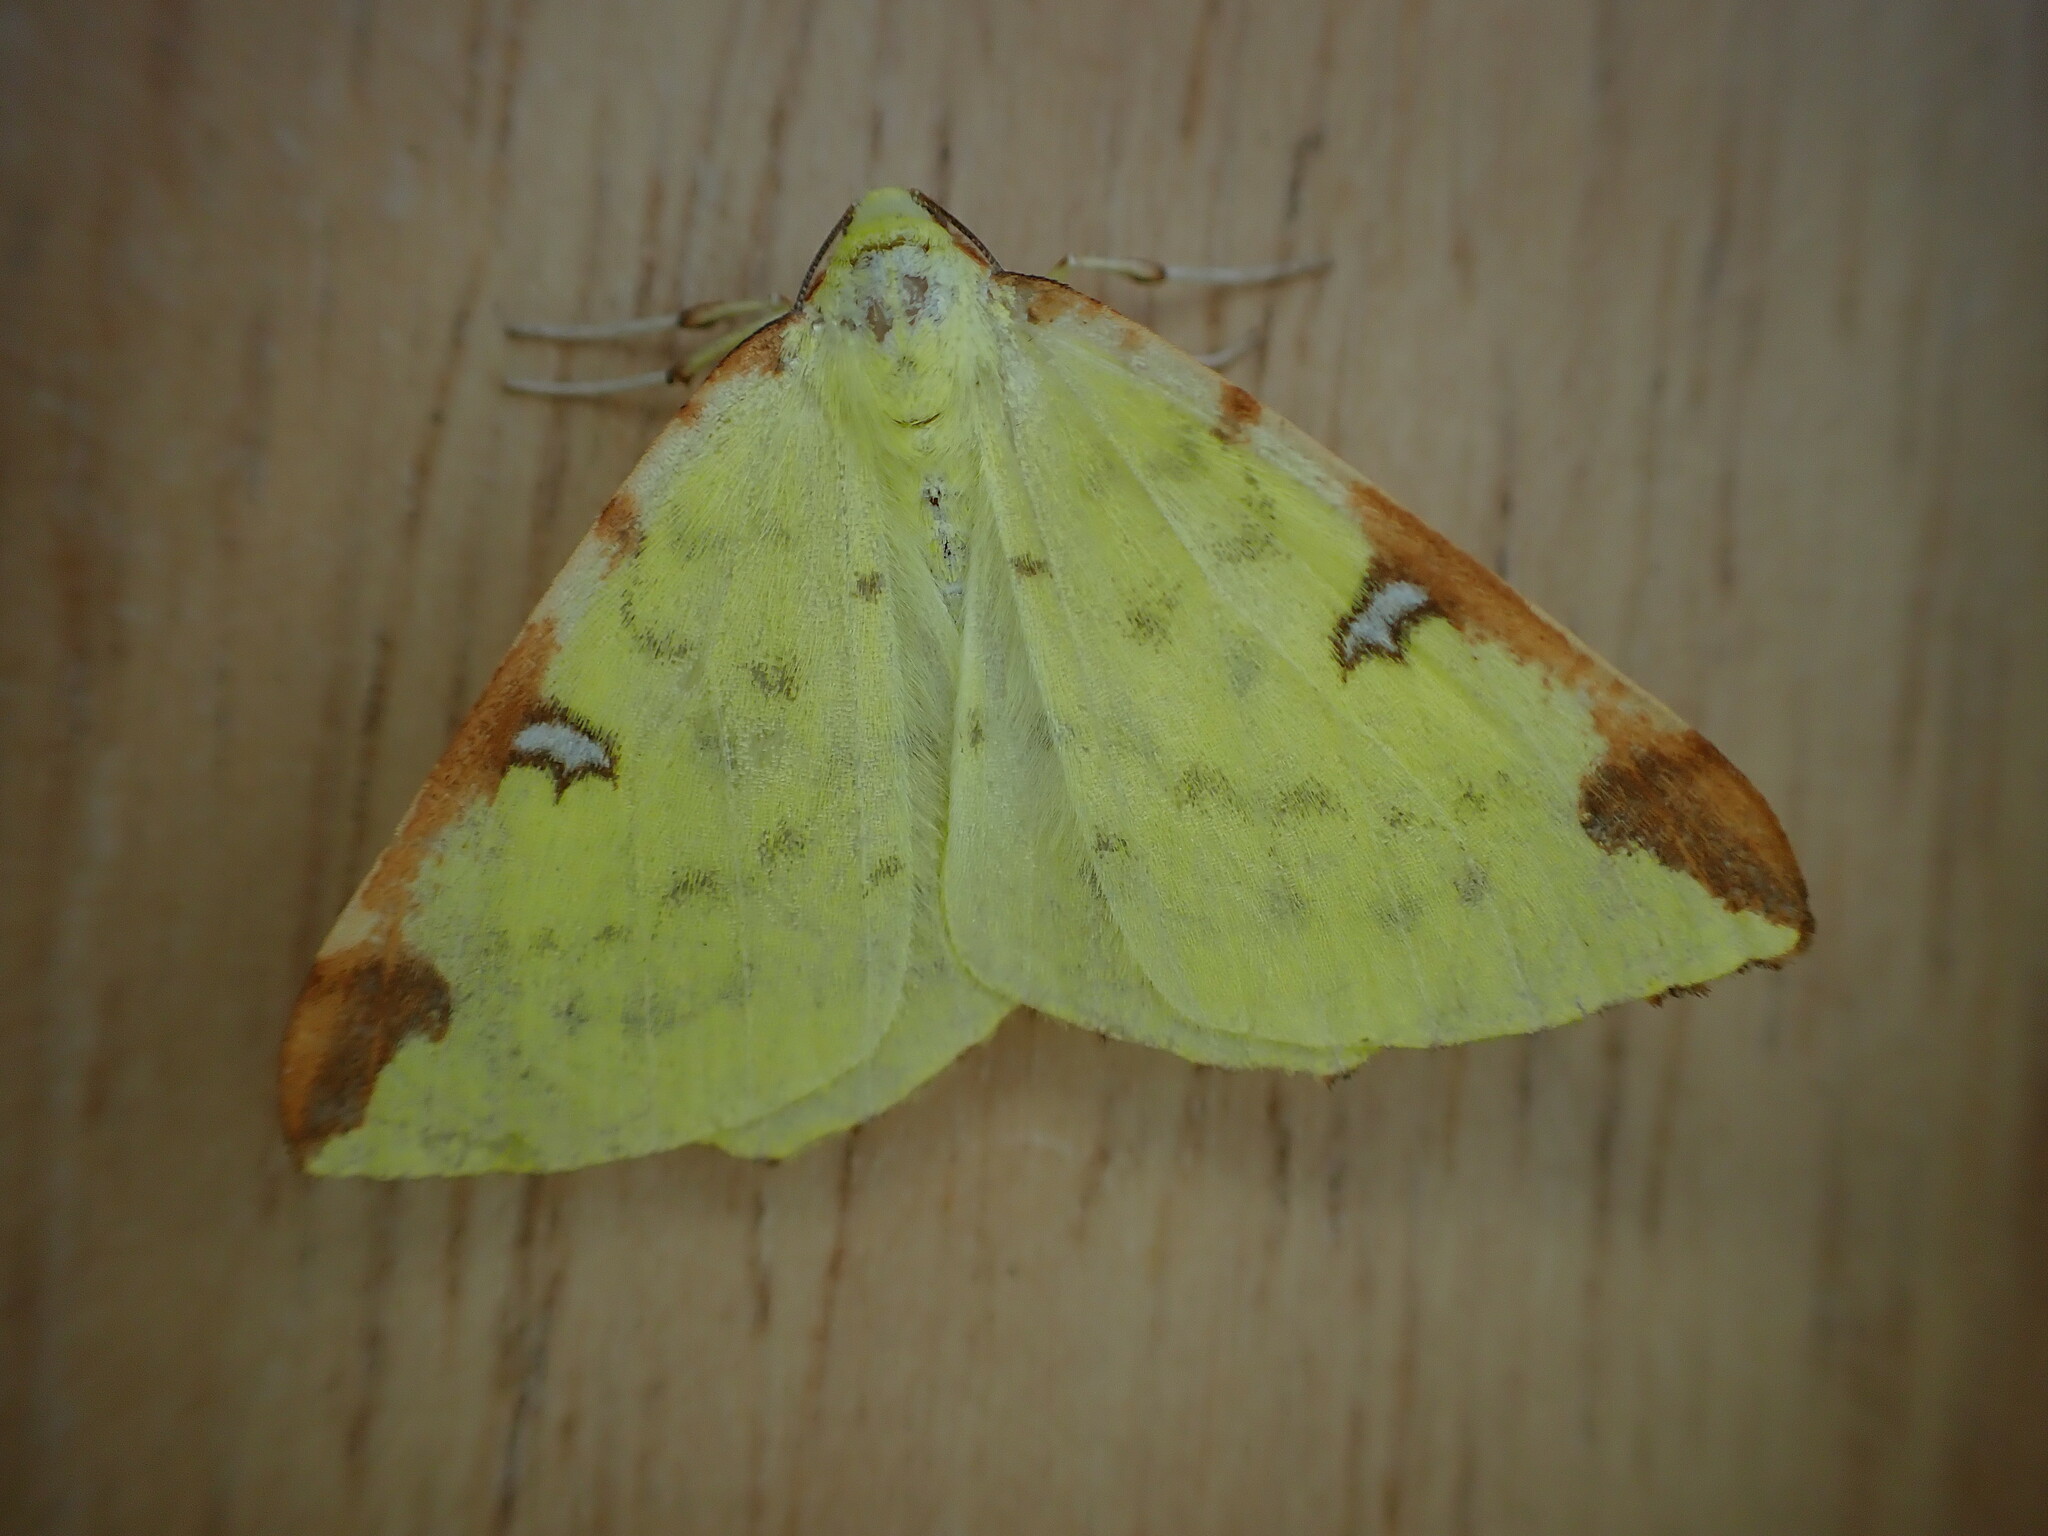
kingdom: Animalia
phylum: Arthropoda
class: Insecta
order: Lepidoptera
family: Geometridae
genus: Opisthograptis
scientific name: Opisthograptis luteolata
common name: Brimstone moth
